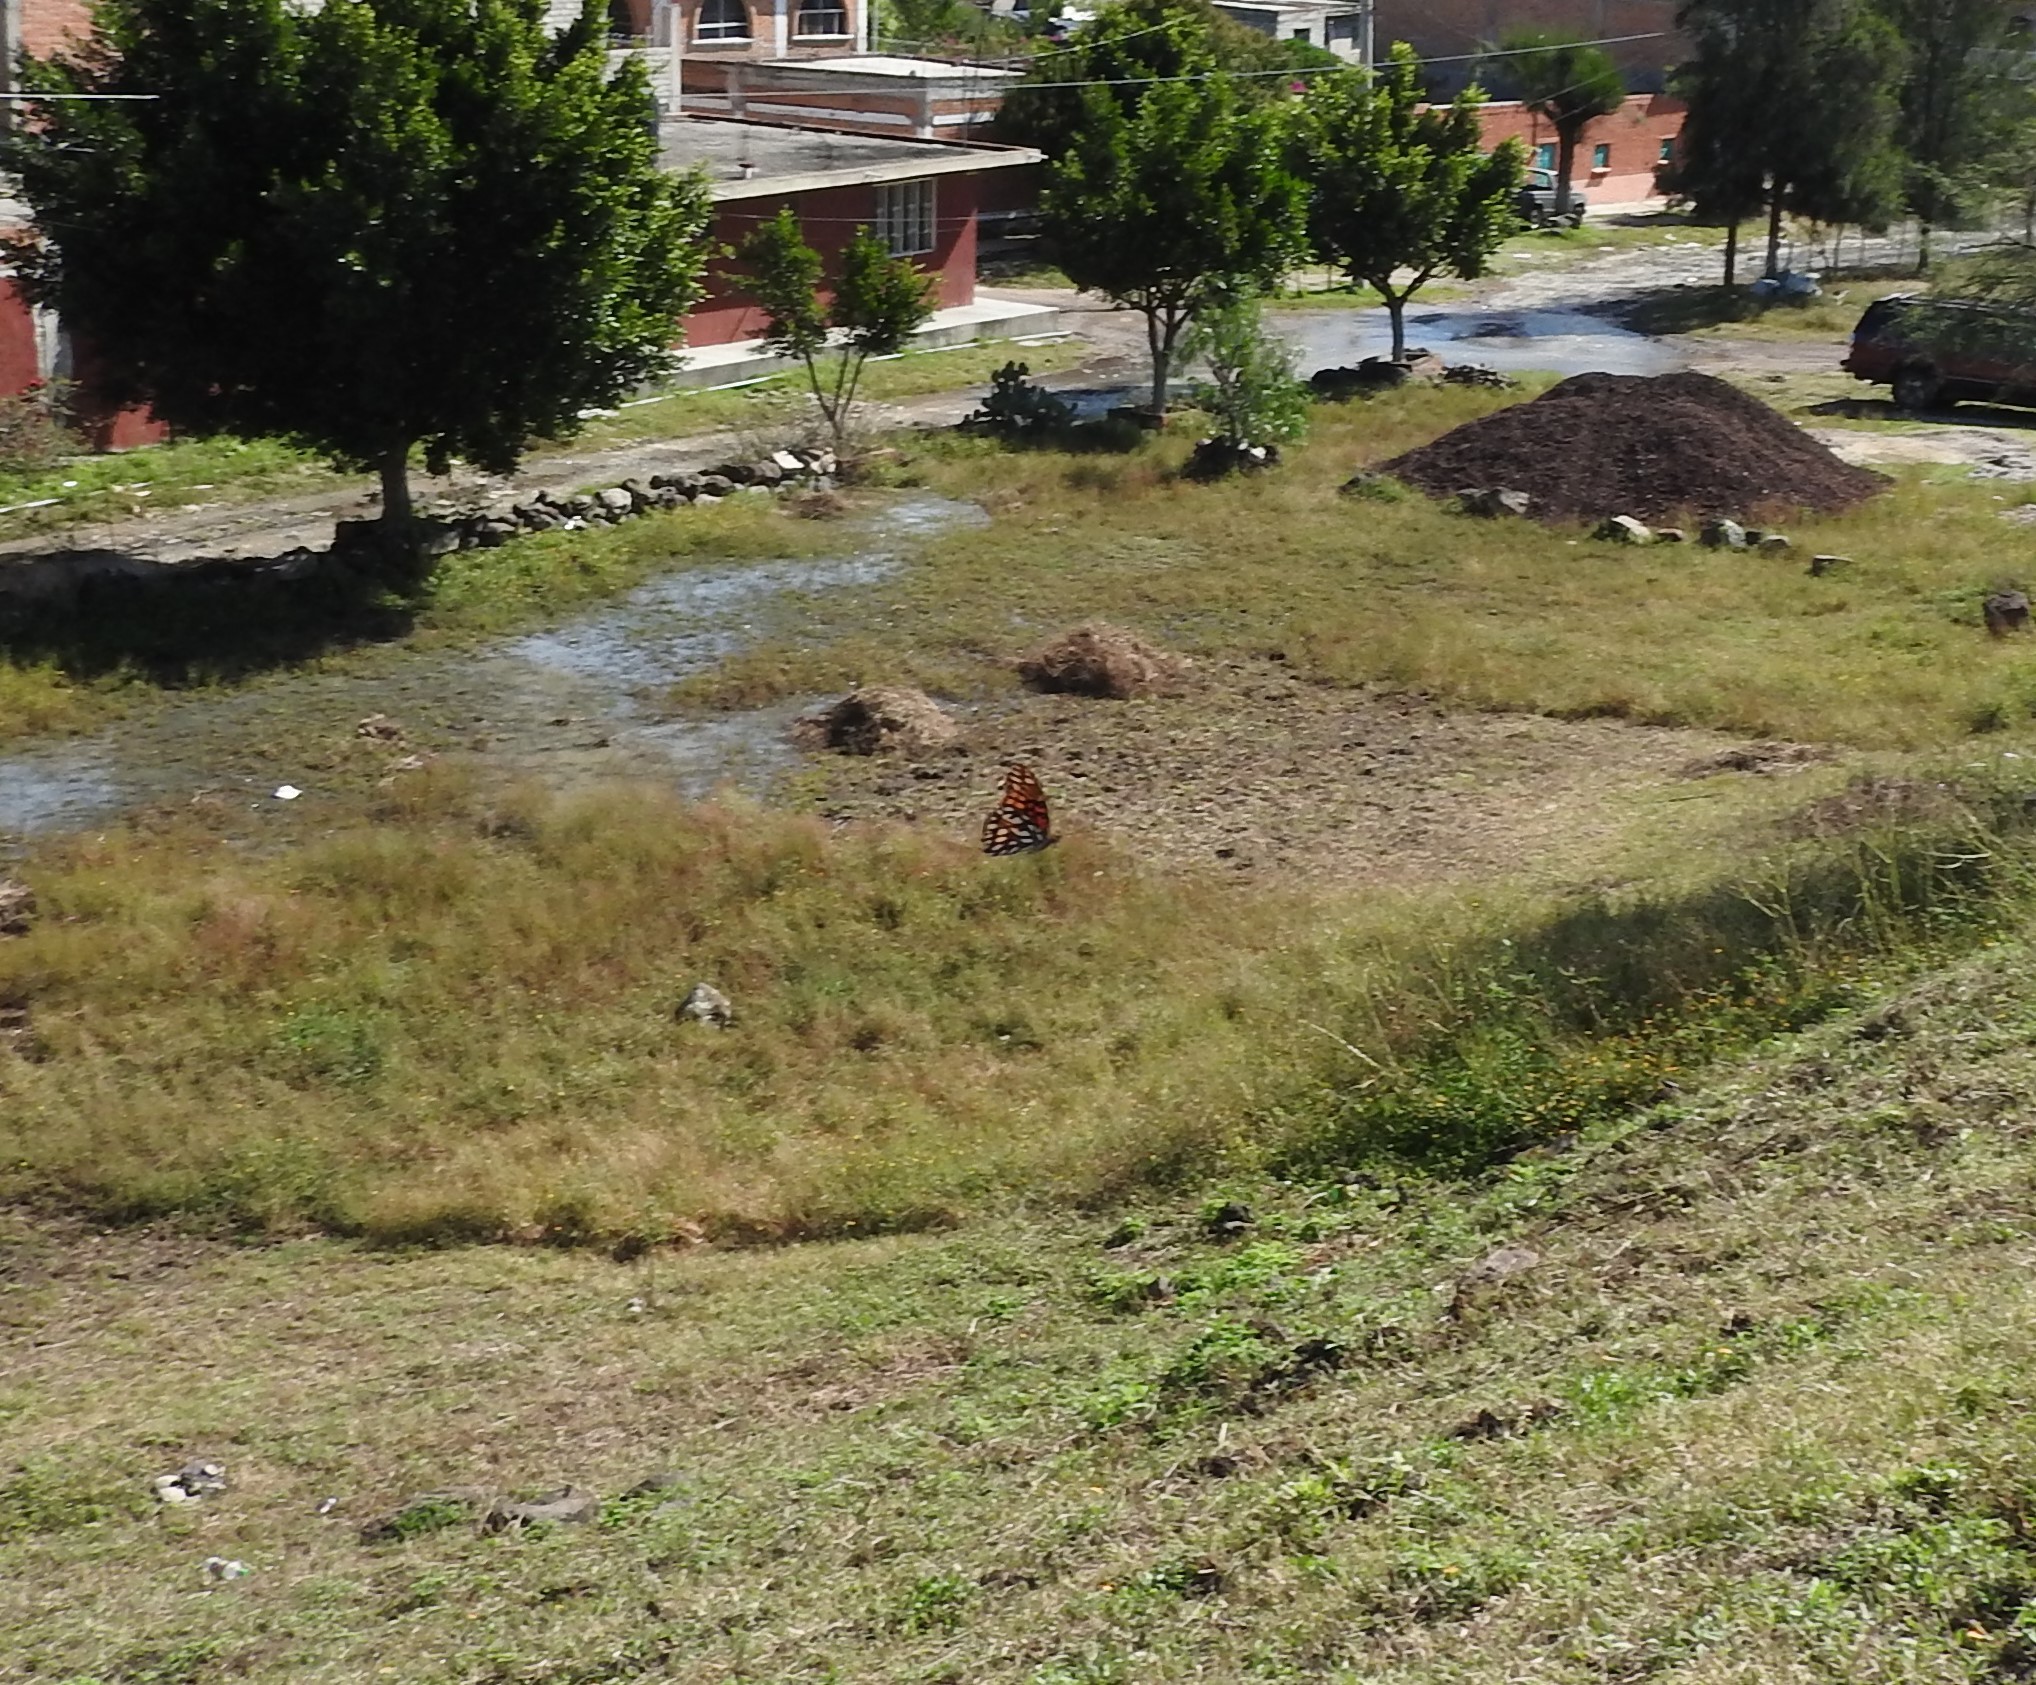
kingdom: Animalia
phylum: Arthropoda
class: Insecta
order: Lepidoptera
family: Nymphalidae
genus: Dione
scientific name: Dione moneta
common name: Mexican silverspot
